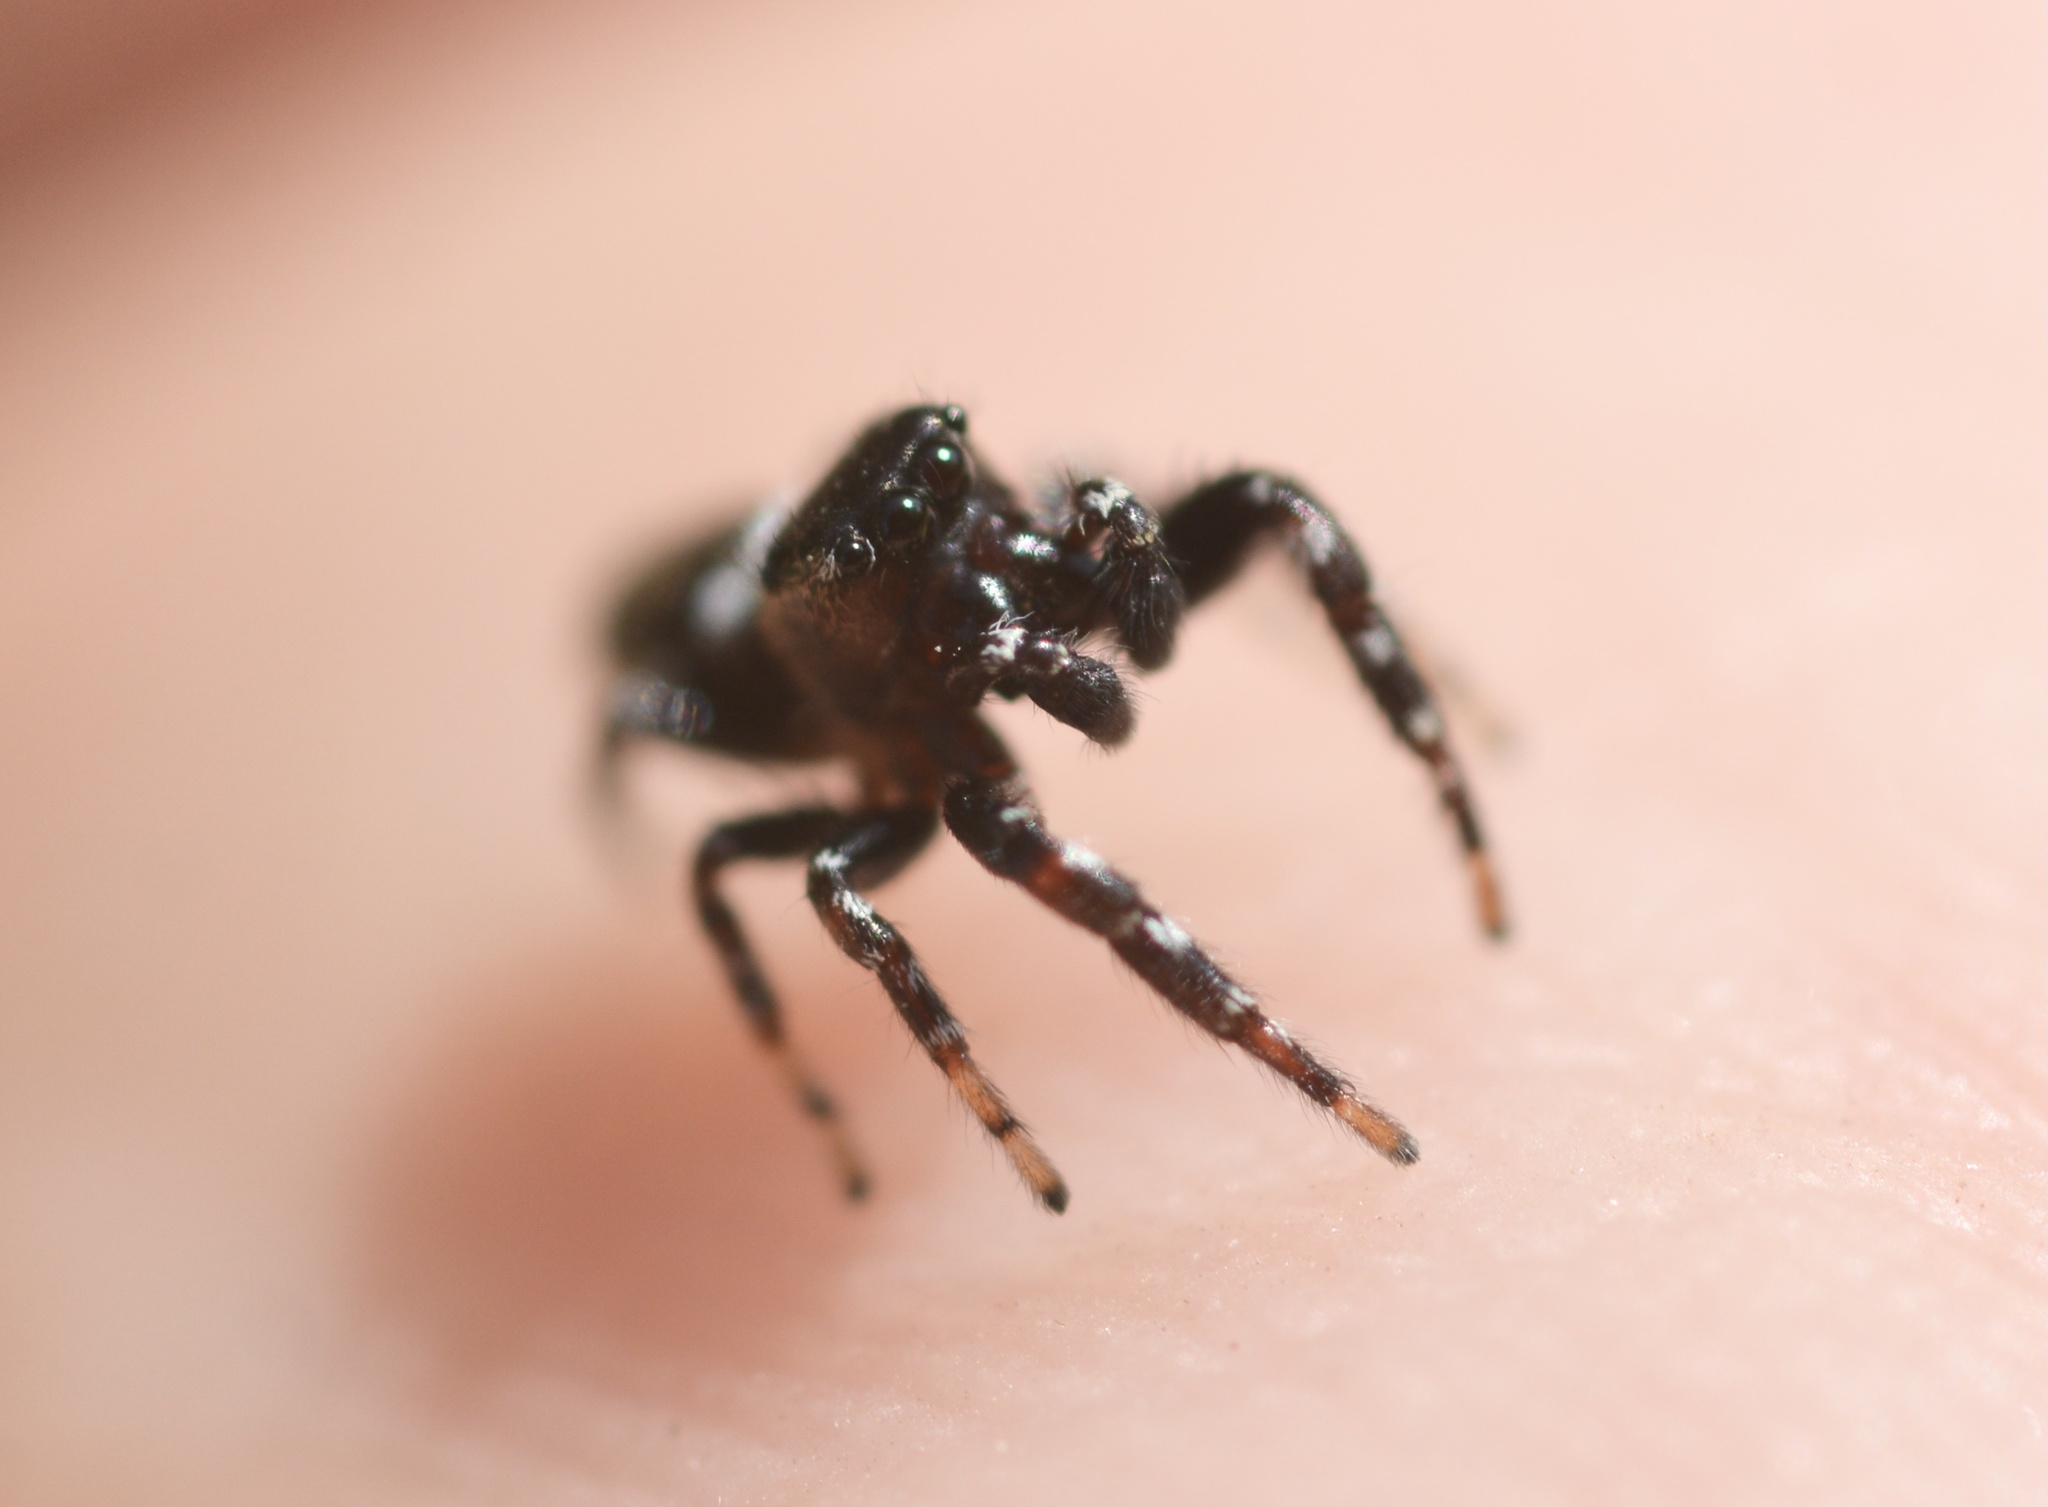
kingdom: Animalia
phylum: Arthropoda
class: Arachnida
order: Araneae
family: Salticidae
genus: Pelegrina
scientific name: Pelegrina aeneola
